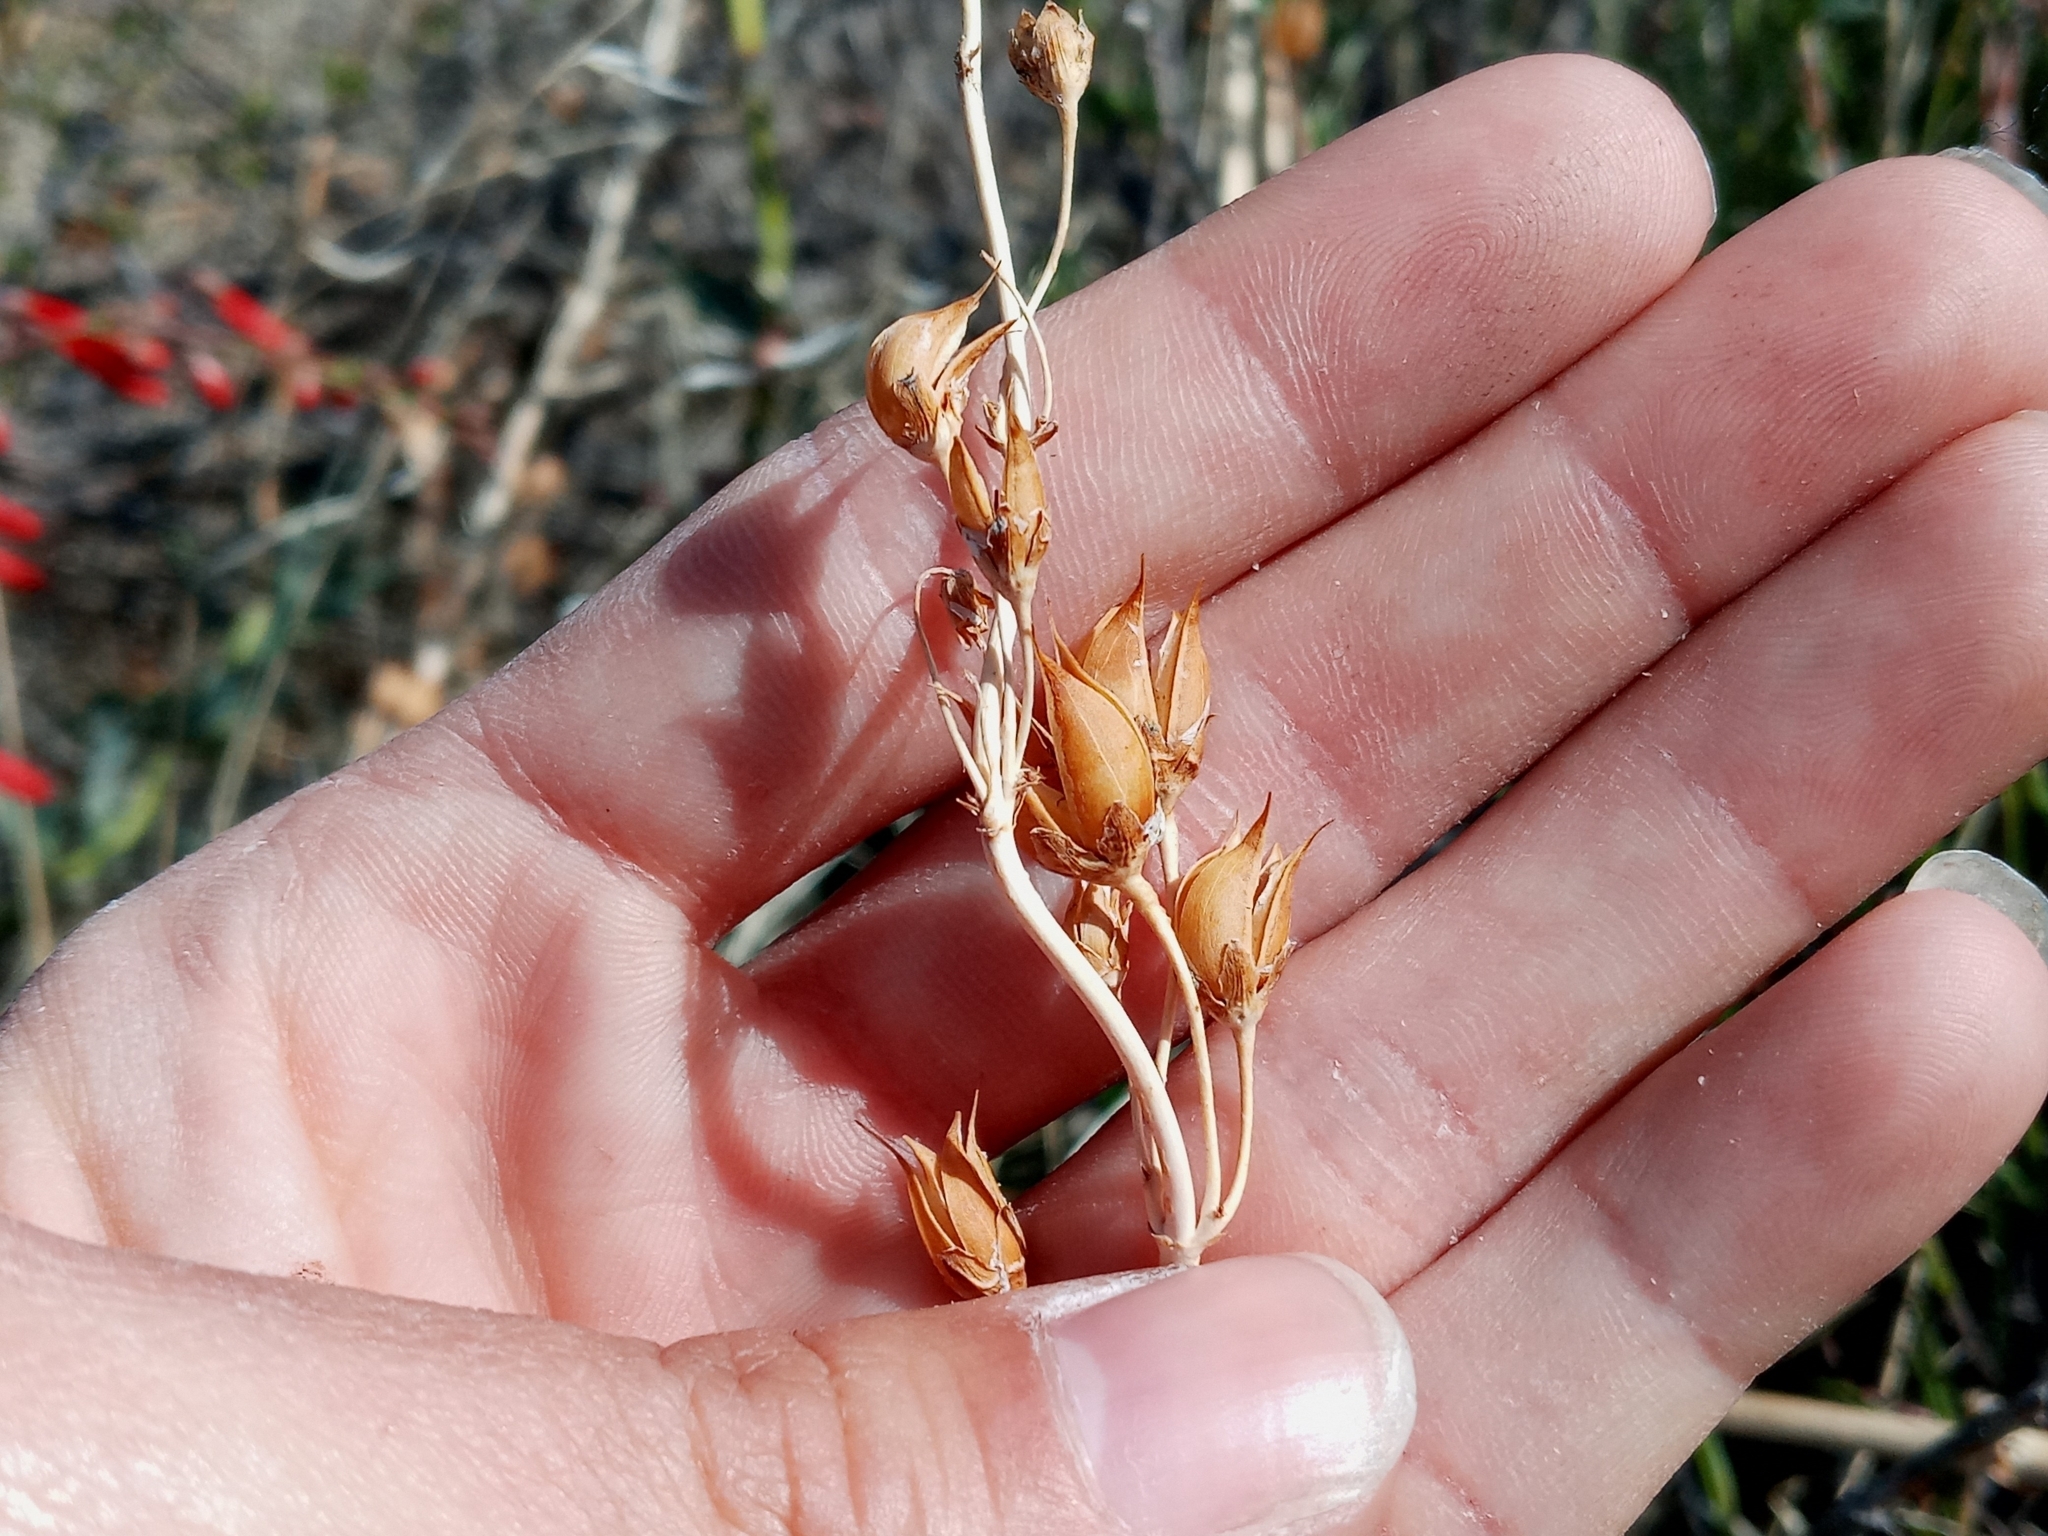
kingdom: Plantae
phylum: Tracheophyta
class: Magnoliopsida
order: Lamiales
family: Plantaginaceae
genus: Penstemon
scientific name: Penstemon centranthifolius
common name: Scarlet bugler
